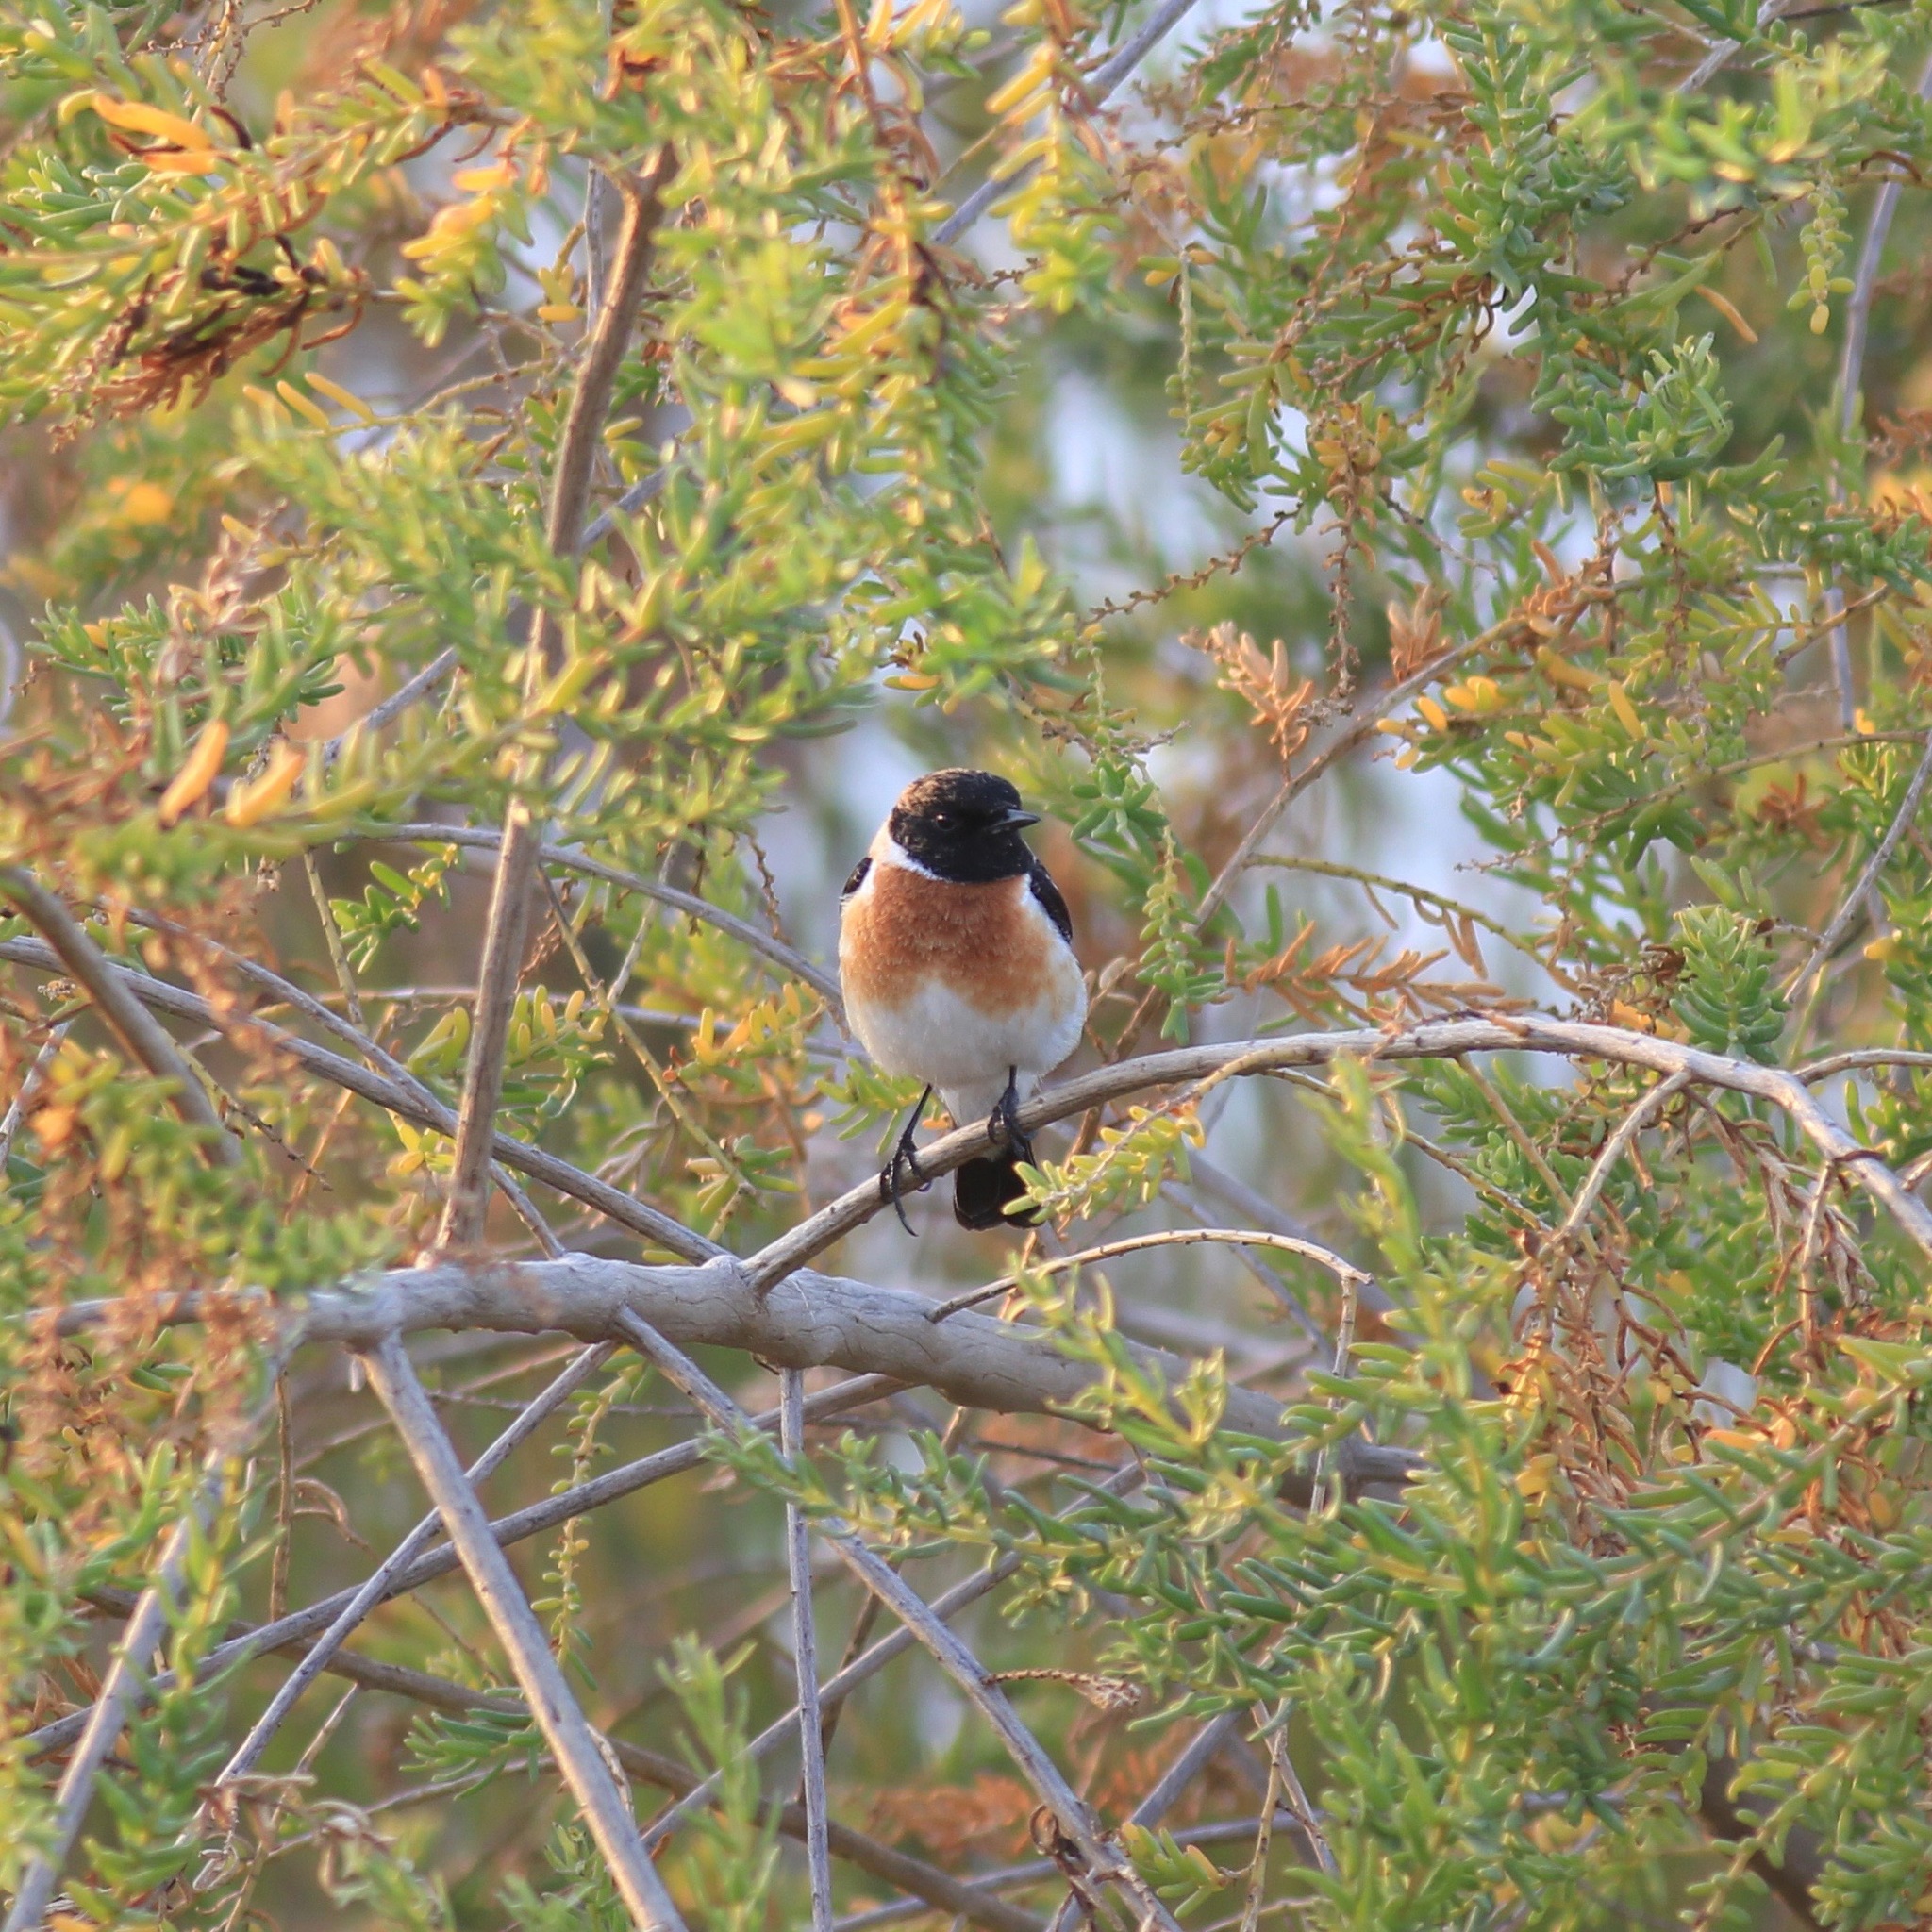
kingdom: Animalia
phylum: Chordata
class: Aves
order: Passeriformes
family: Muscicapidae
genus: Saxicola
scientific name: Saxicola maurus
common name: Siberian stonechat
